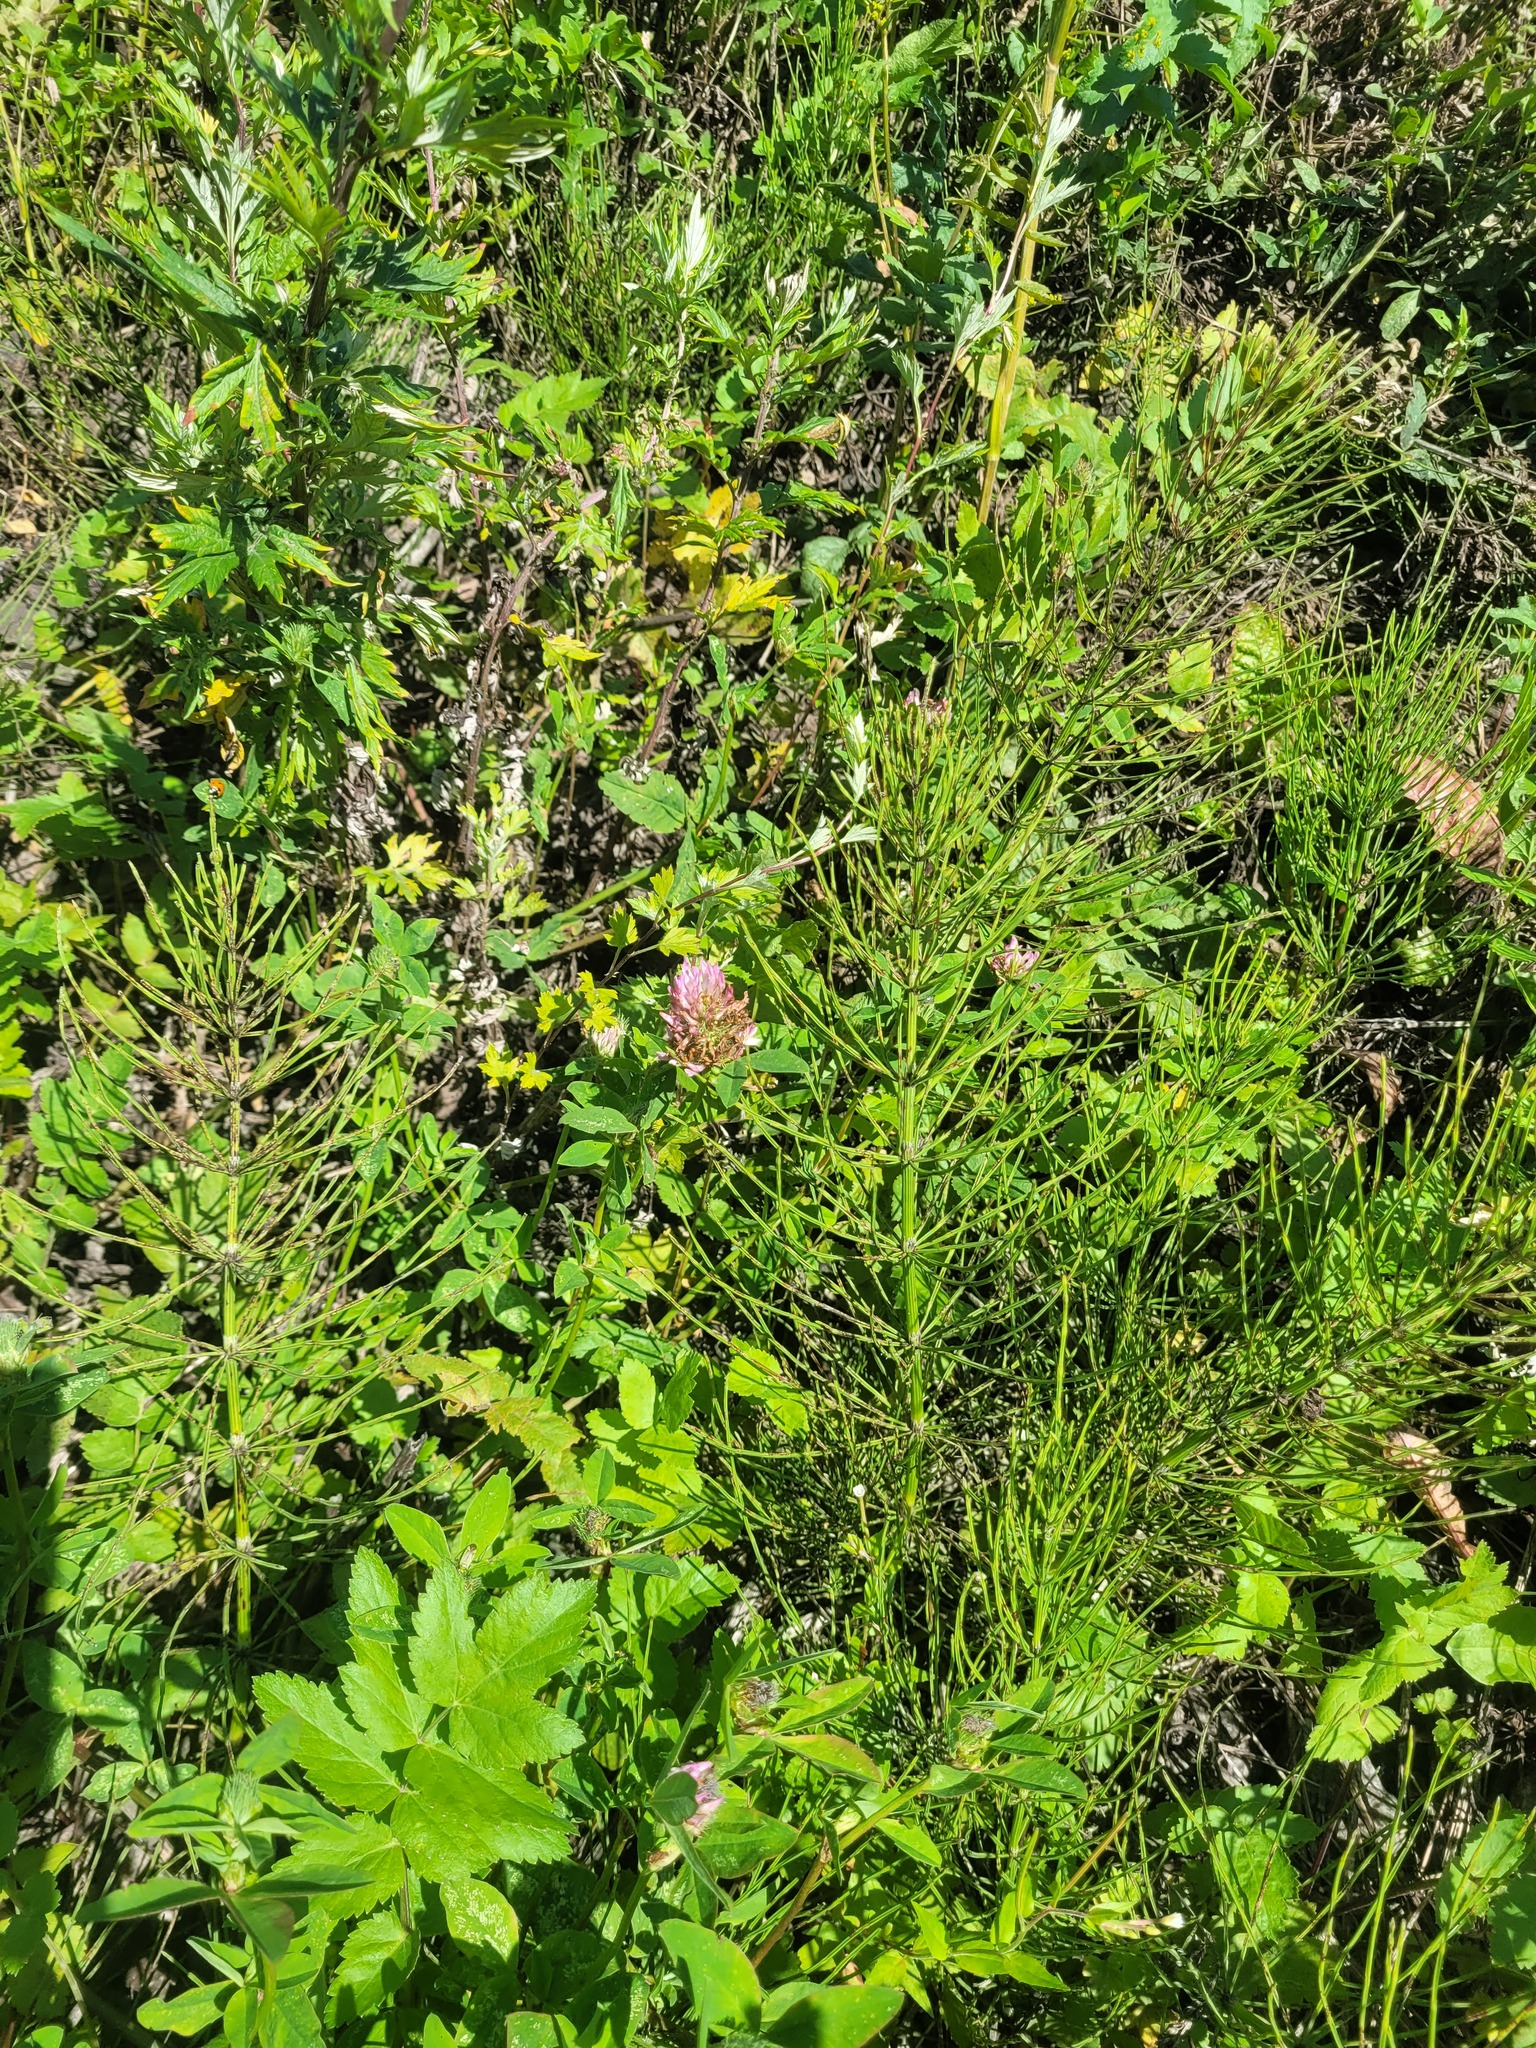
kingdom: Plantae
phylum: Tracheophyta
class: Magnoliopsida
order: Fabales
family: Fabaceae
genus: Trifolium
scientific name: Trifolium pratense
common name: Red clover
